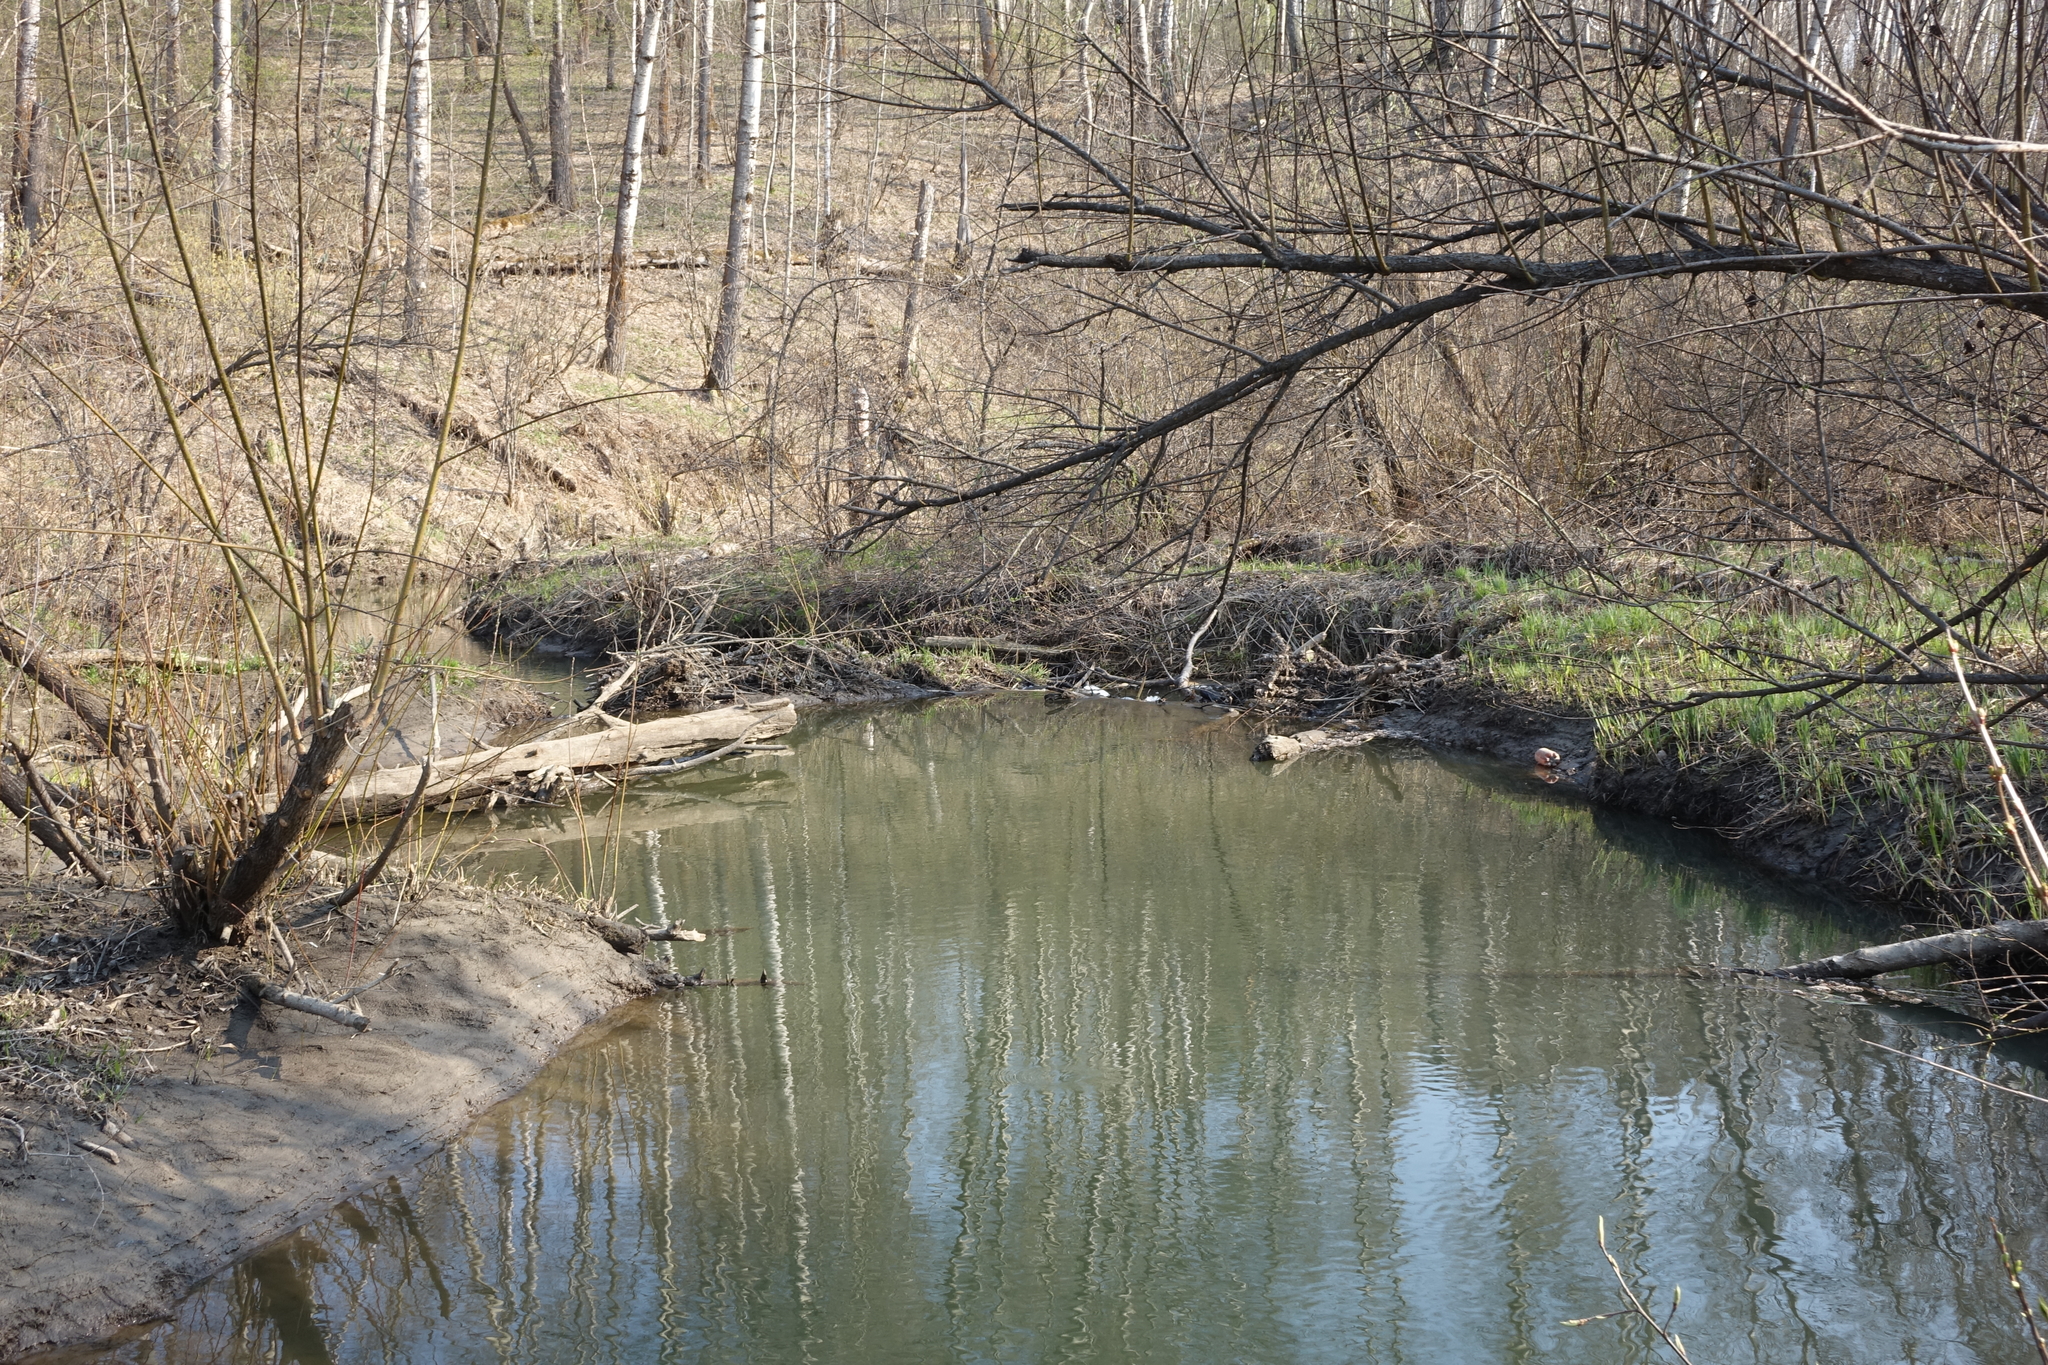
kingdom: Animalia
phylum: Chordata
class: Mammalia
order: Rodentia
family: Castoridae
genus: Castor
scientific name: Castor fiber
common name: Eurasian beaver
